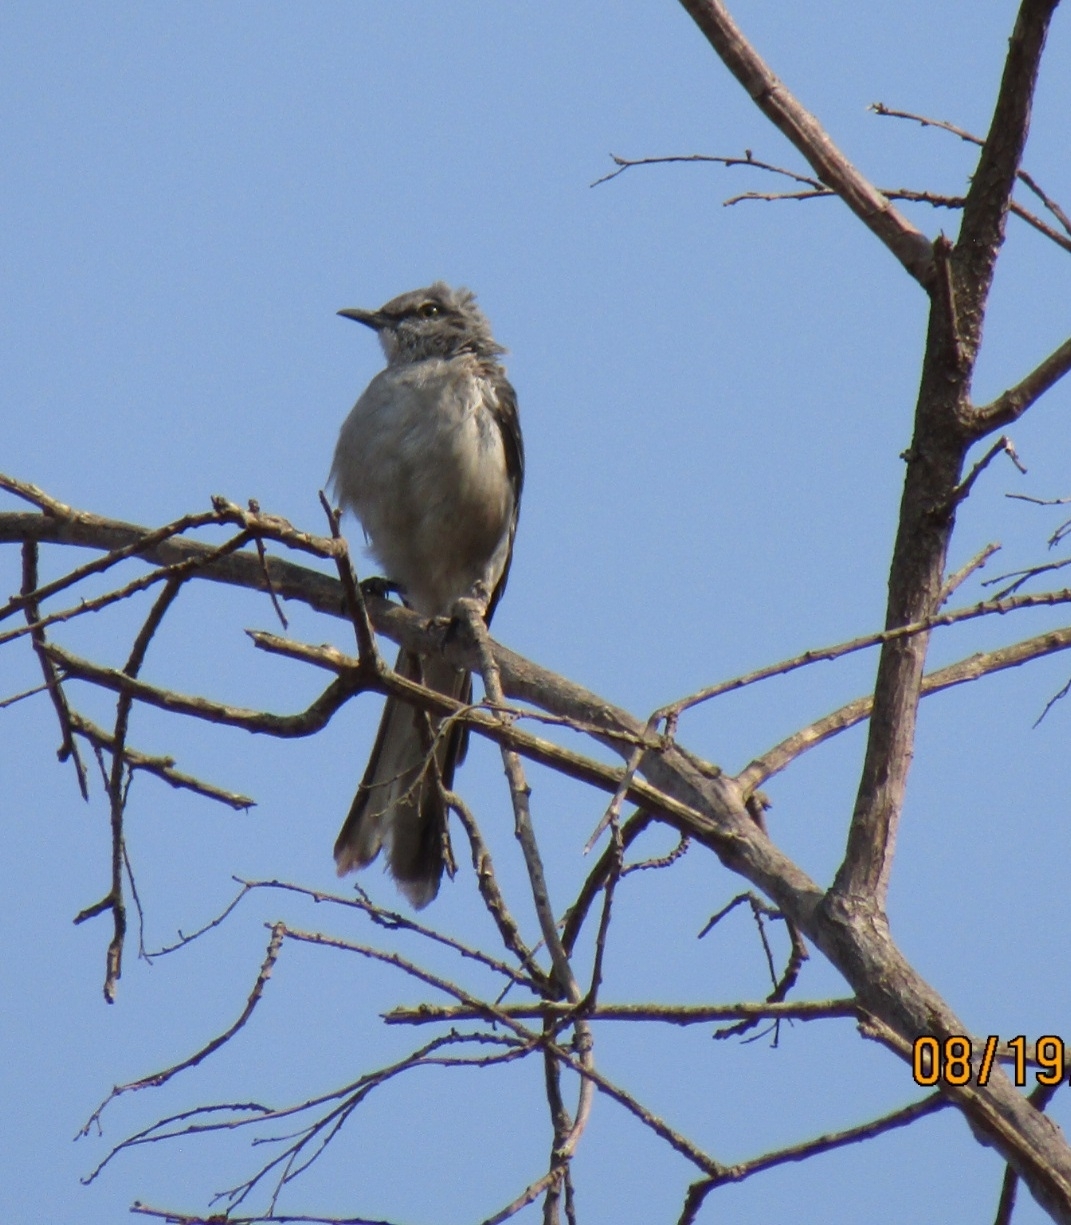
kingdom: Animalia
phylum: Chordata
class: Aves
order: Passeriformes
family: Mimidae
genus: Mimus
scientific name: Mimus polyglottos
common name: Northern mockingbird
